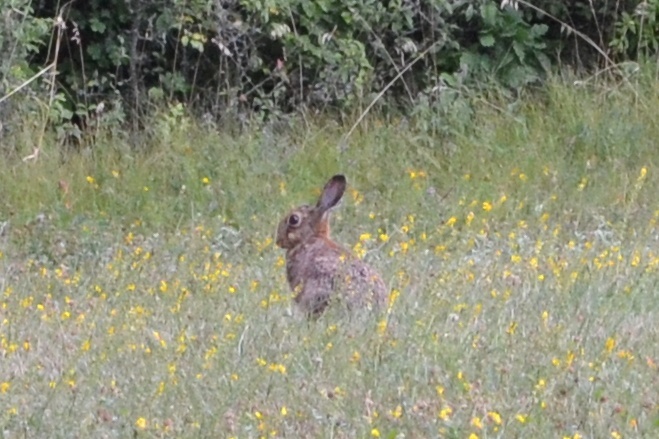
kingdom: Animalia
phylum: Chordata
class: Mammalia
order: Lagomorpha
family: Leporidae
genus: Lepus
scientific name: Lepus europaeus
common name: European hare
